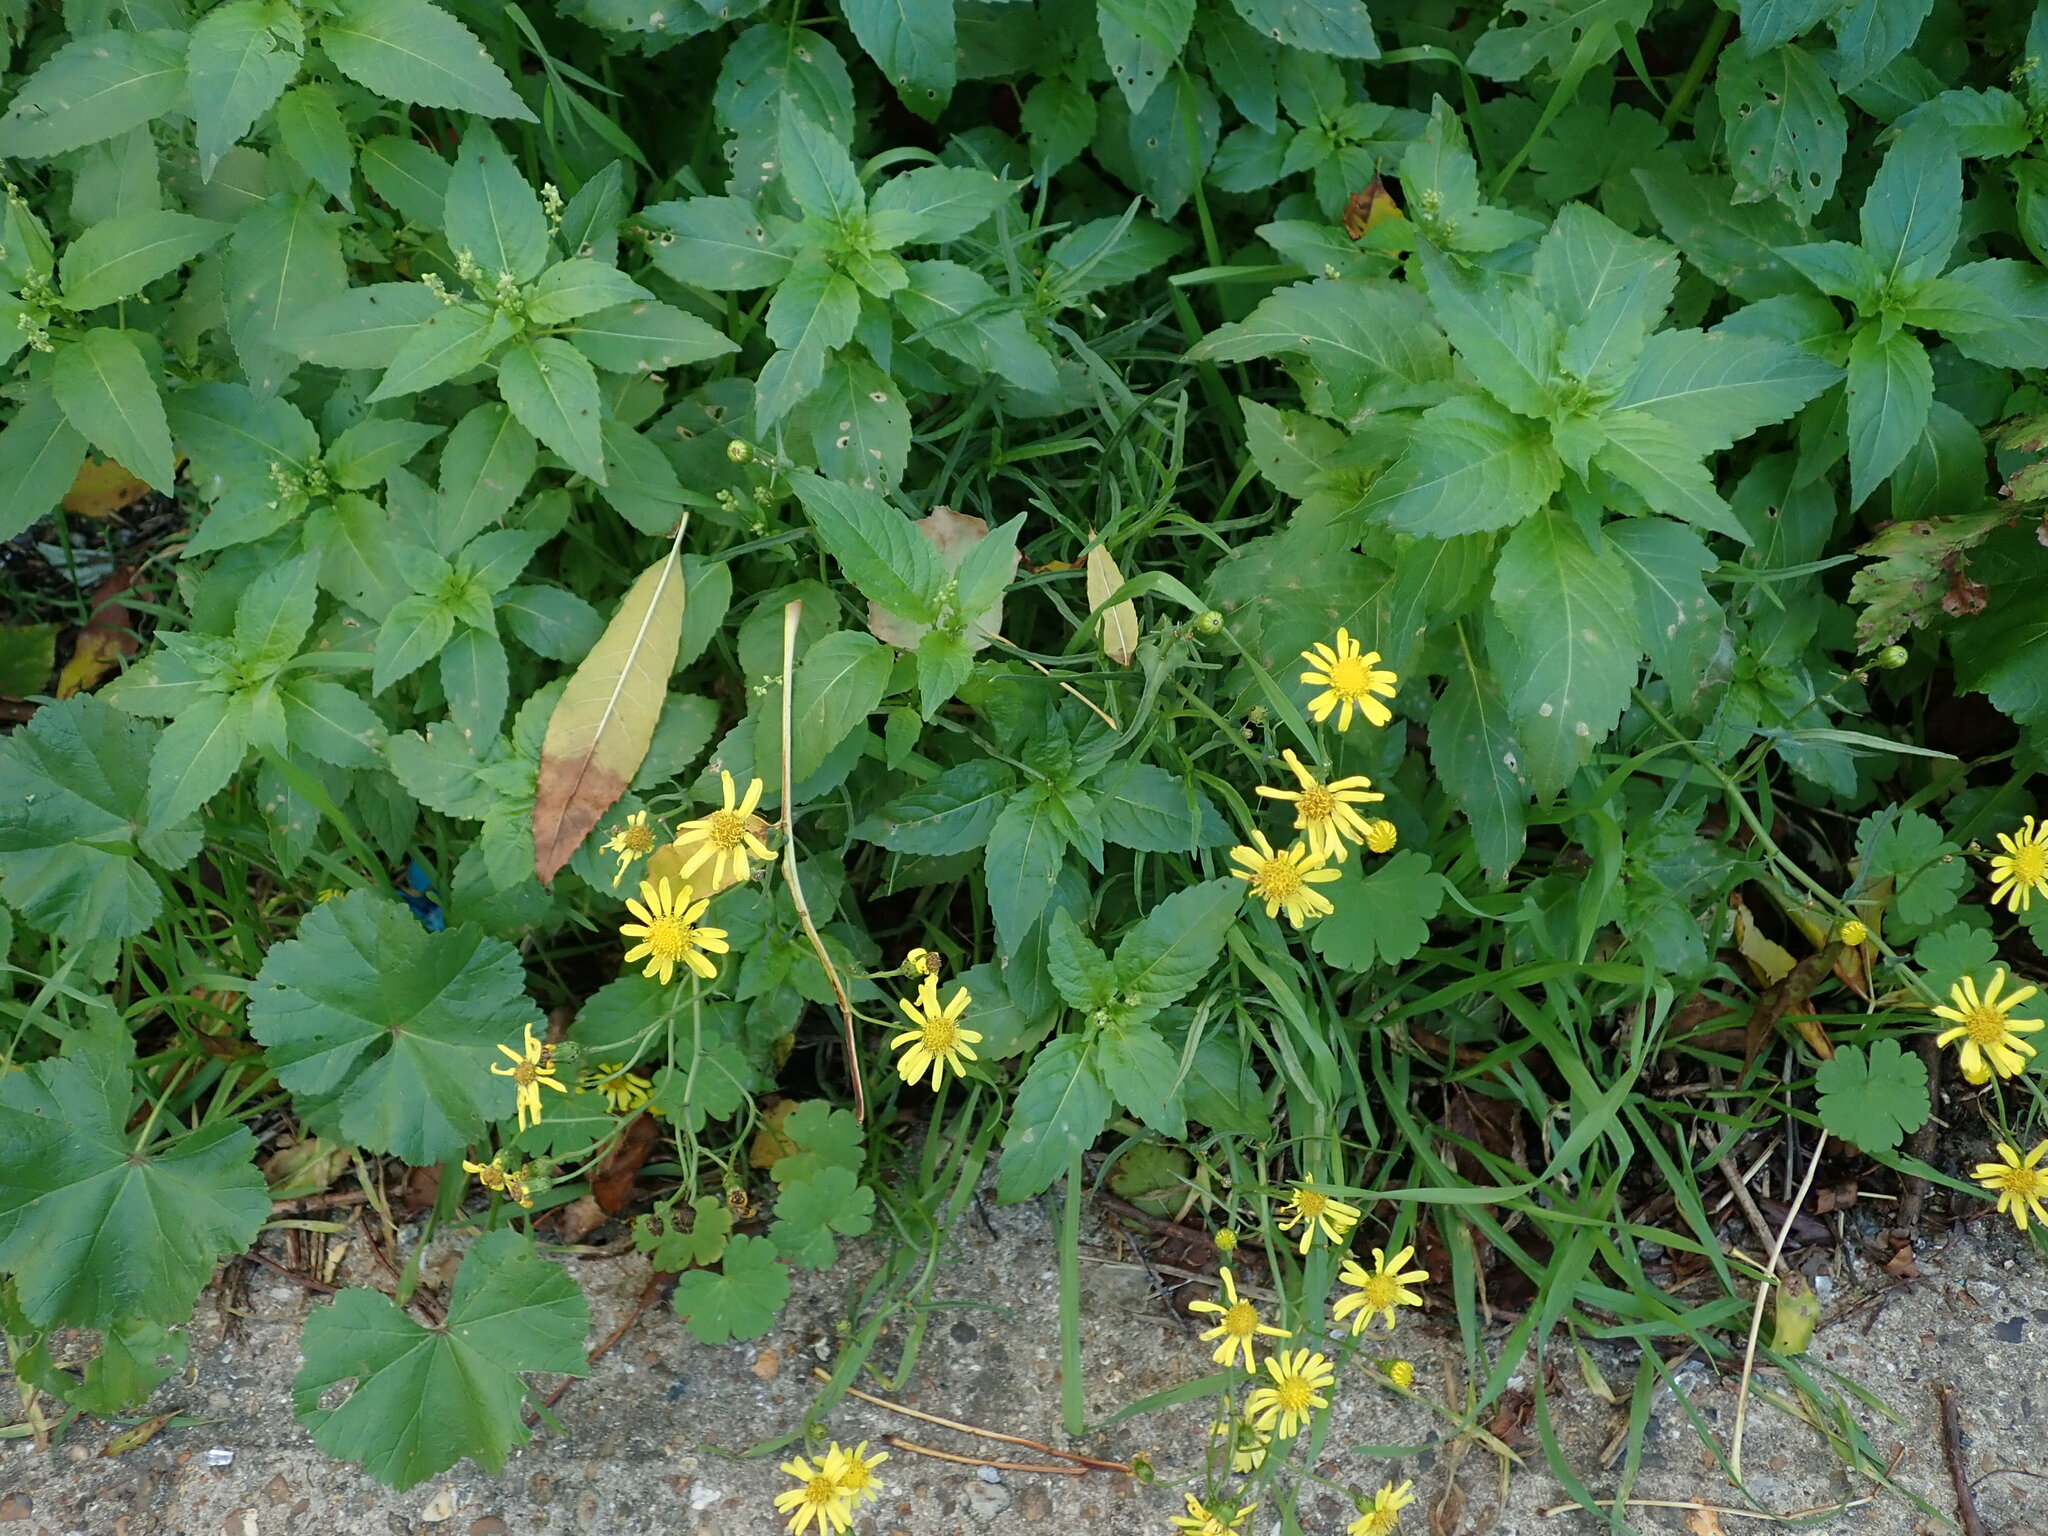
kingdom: Plantae
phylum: Tracheophyta
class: Magnoliopsida
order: Asterales
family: Asteraceae
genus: Senecio
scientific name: Senecio inaequidens
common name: Narrow-leaved ragwort
